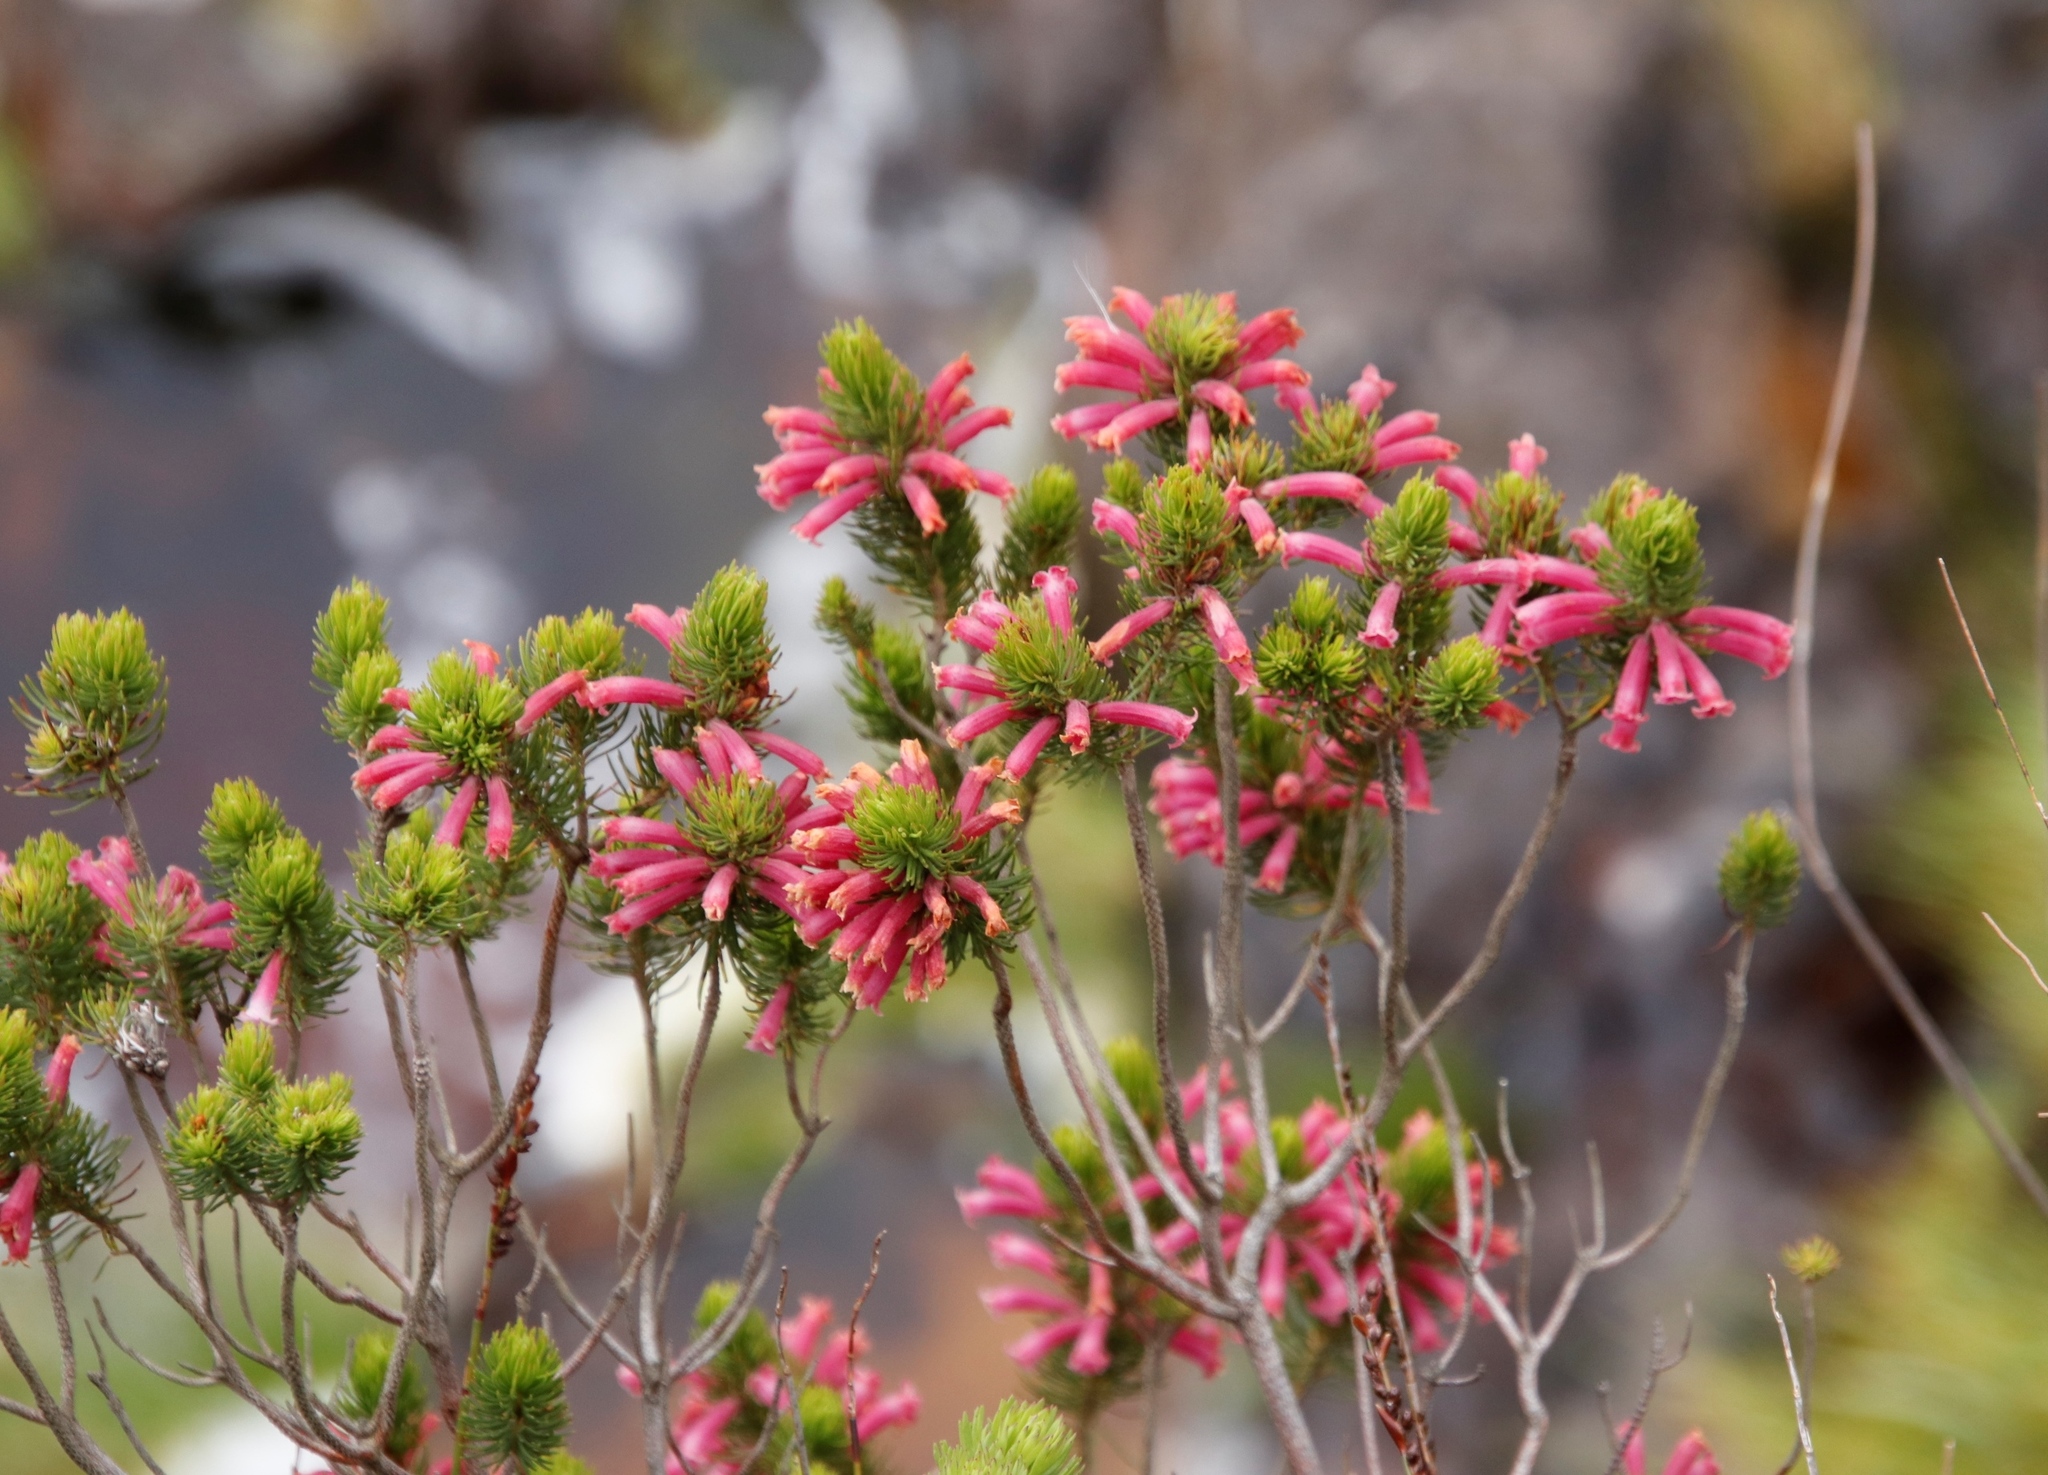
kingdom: Plantae
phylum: Tracheophyta
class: Magnoliopsida
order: Ericales
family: Ericaceae
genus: Erica
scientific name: Erica viscaria
